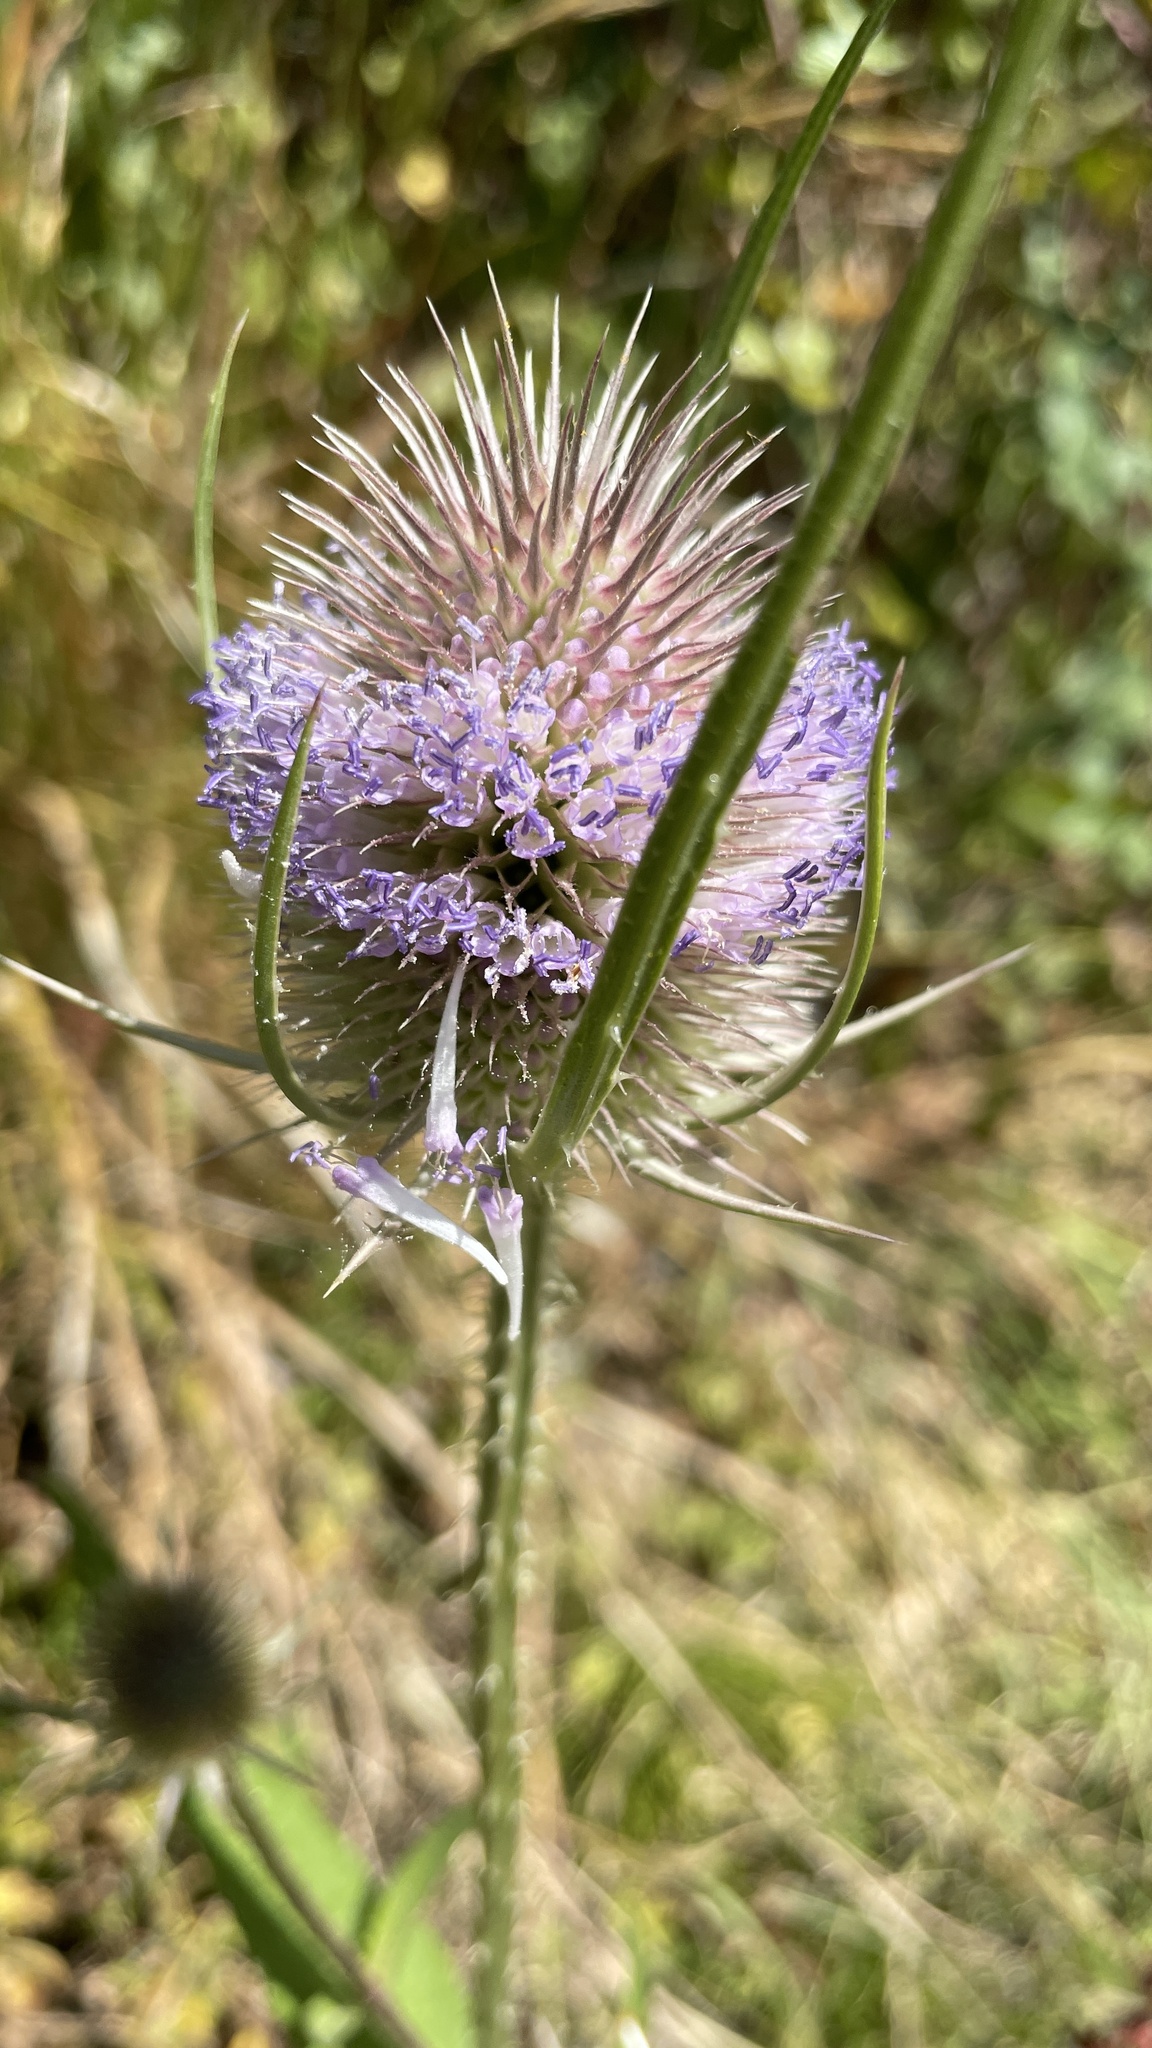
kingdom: Plantae
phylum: Tracheophyta
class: Magnoliopsida
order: Dipsacales
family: Caprifoliaceae
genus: Dipsacus
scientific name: Dipsacus fullonum
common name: Teasel
